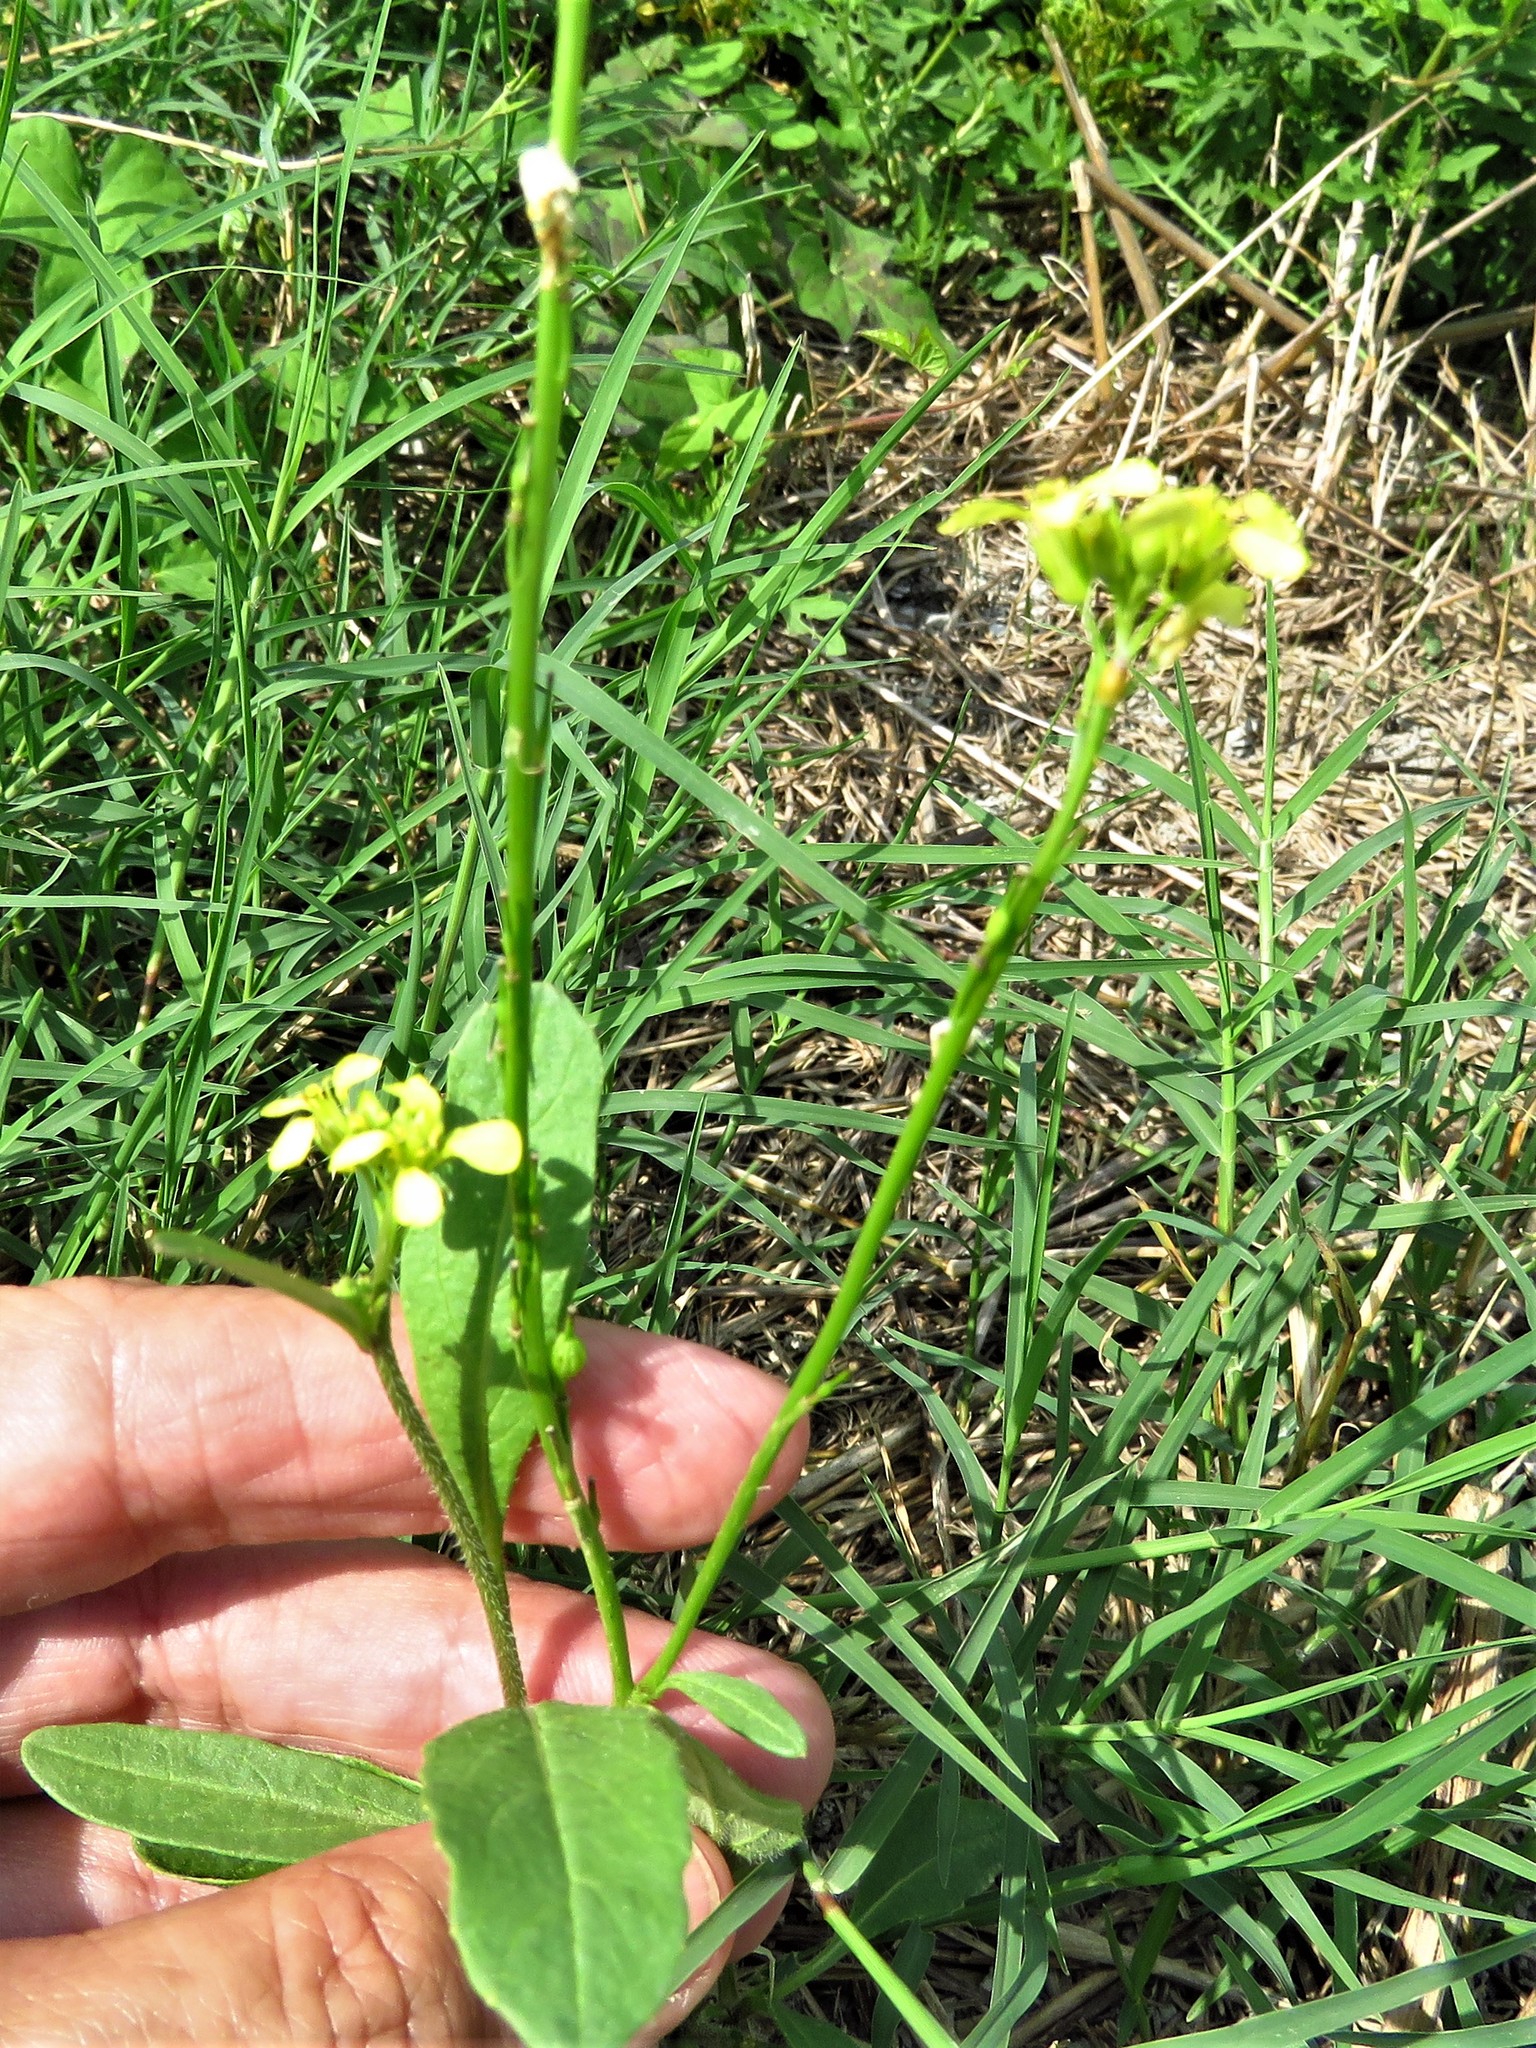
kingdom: Plantae
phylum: Tracheophyta
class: Magnoliopsida
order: Brassicales
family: Brassicaceae
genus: Rapistrum
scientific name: Rapistrum rugosum
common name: Annual bastardcabbage
